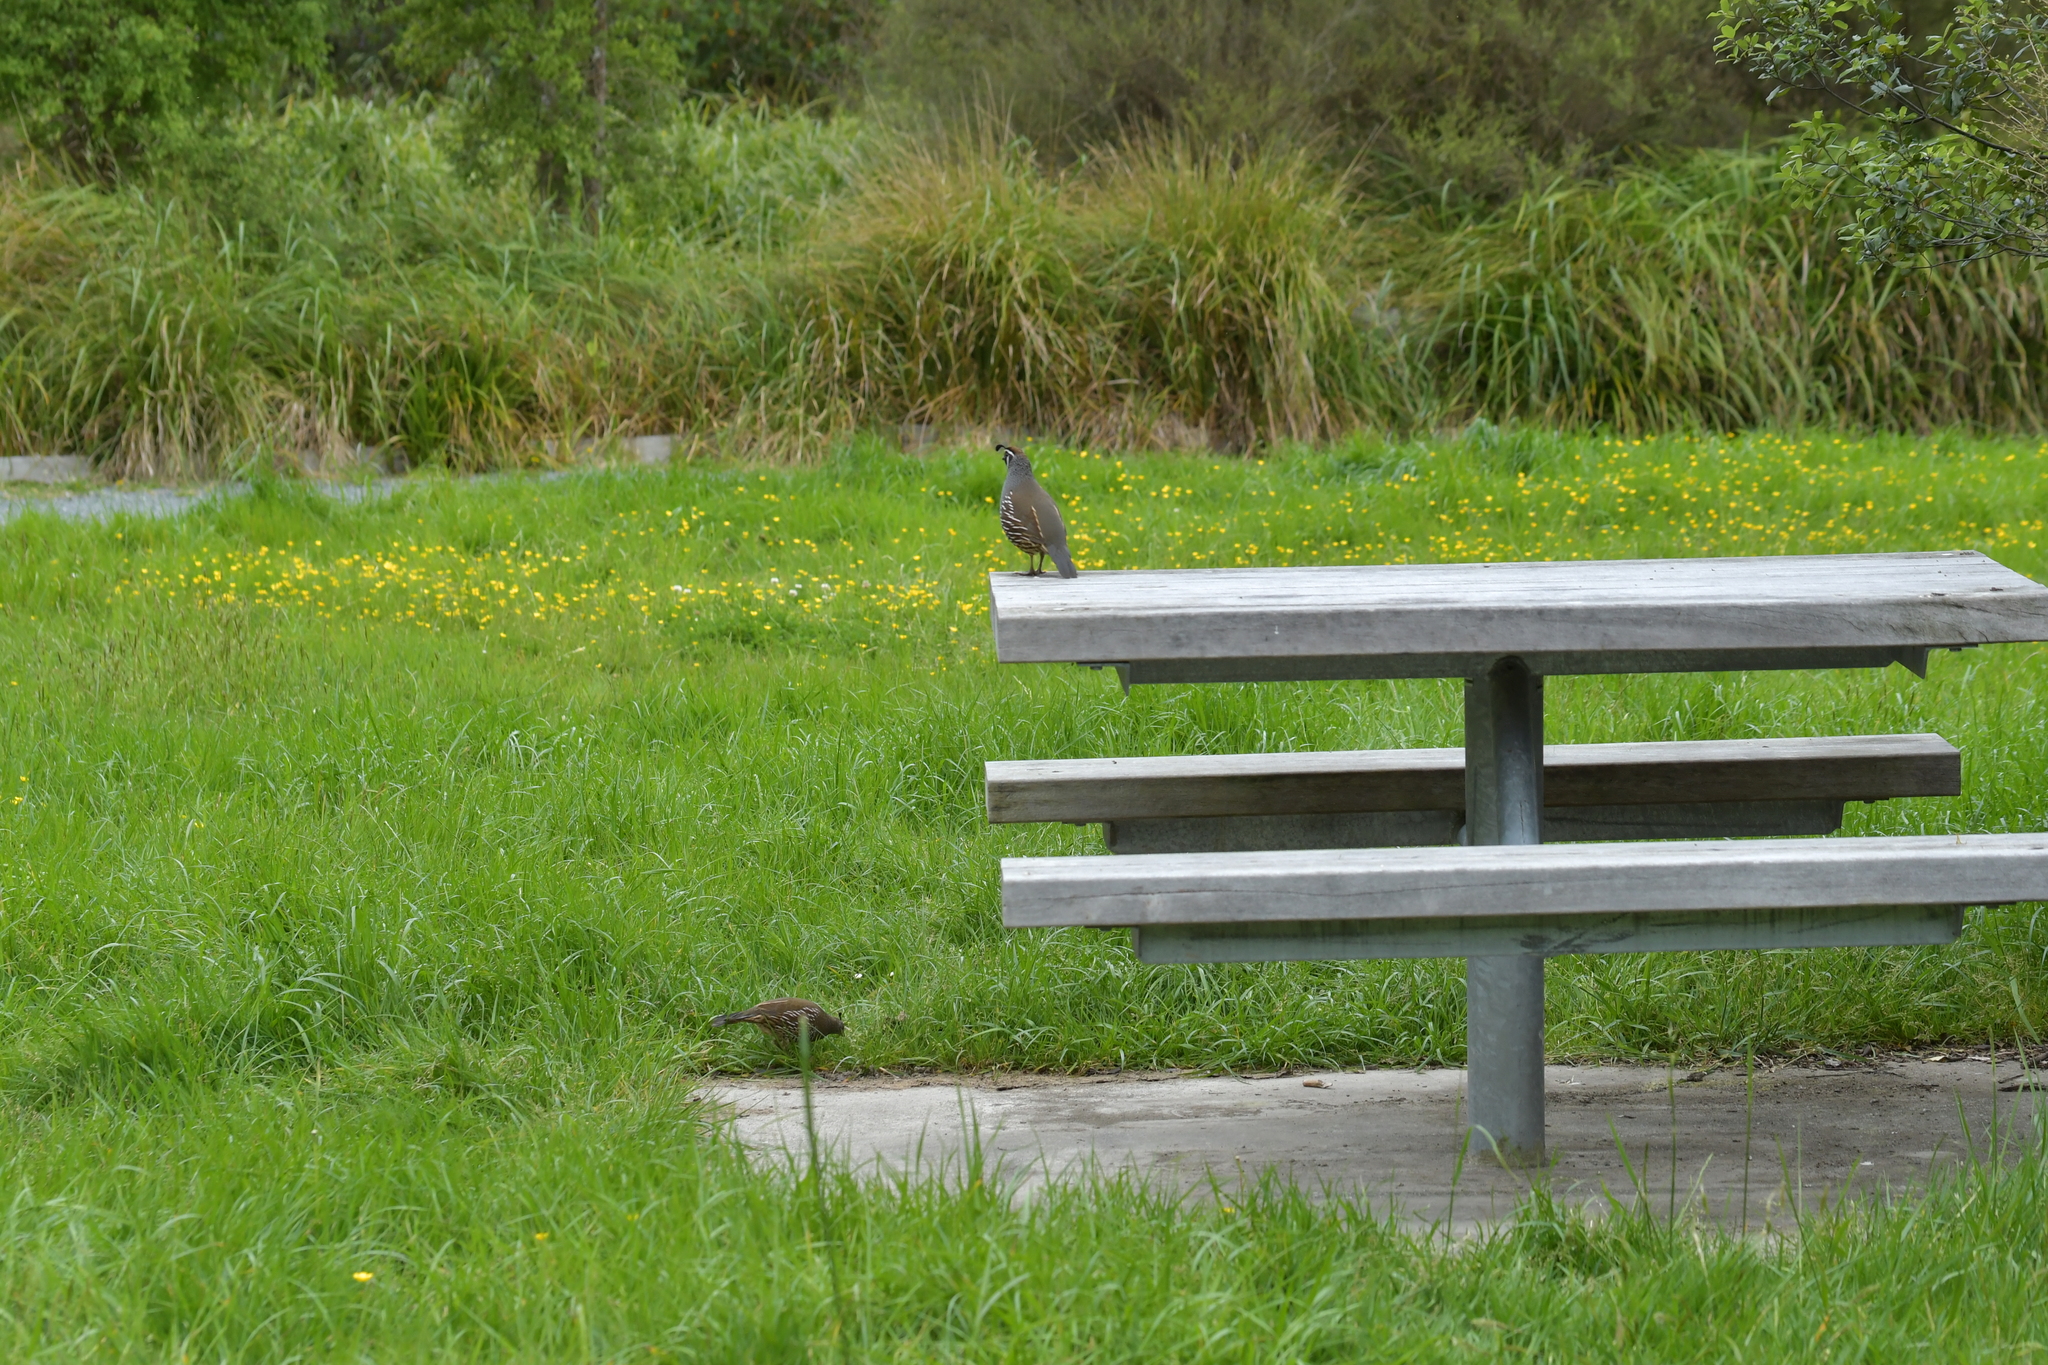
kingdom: Animalia
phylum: Chordata
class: Aves
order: Galliformes
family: Odontophoridae
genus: Callipepla
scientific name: Callipepla californica
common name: California quail
